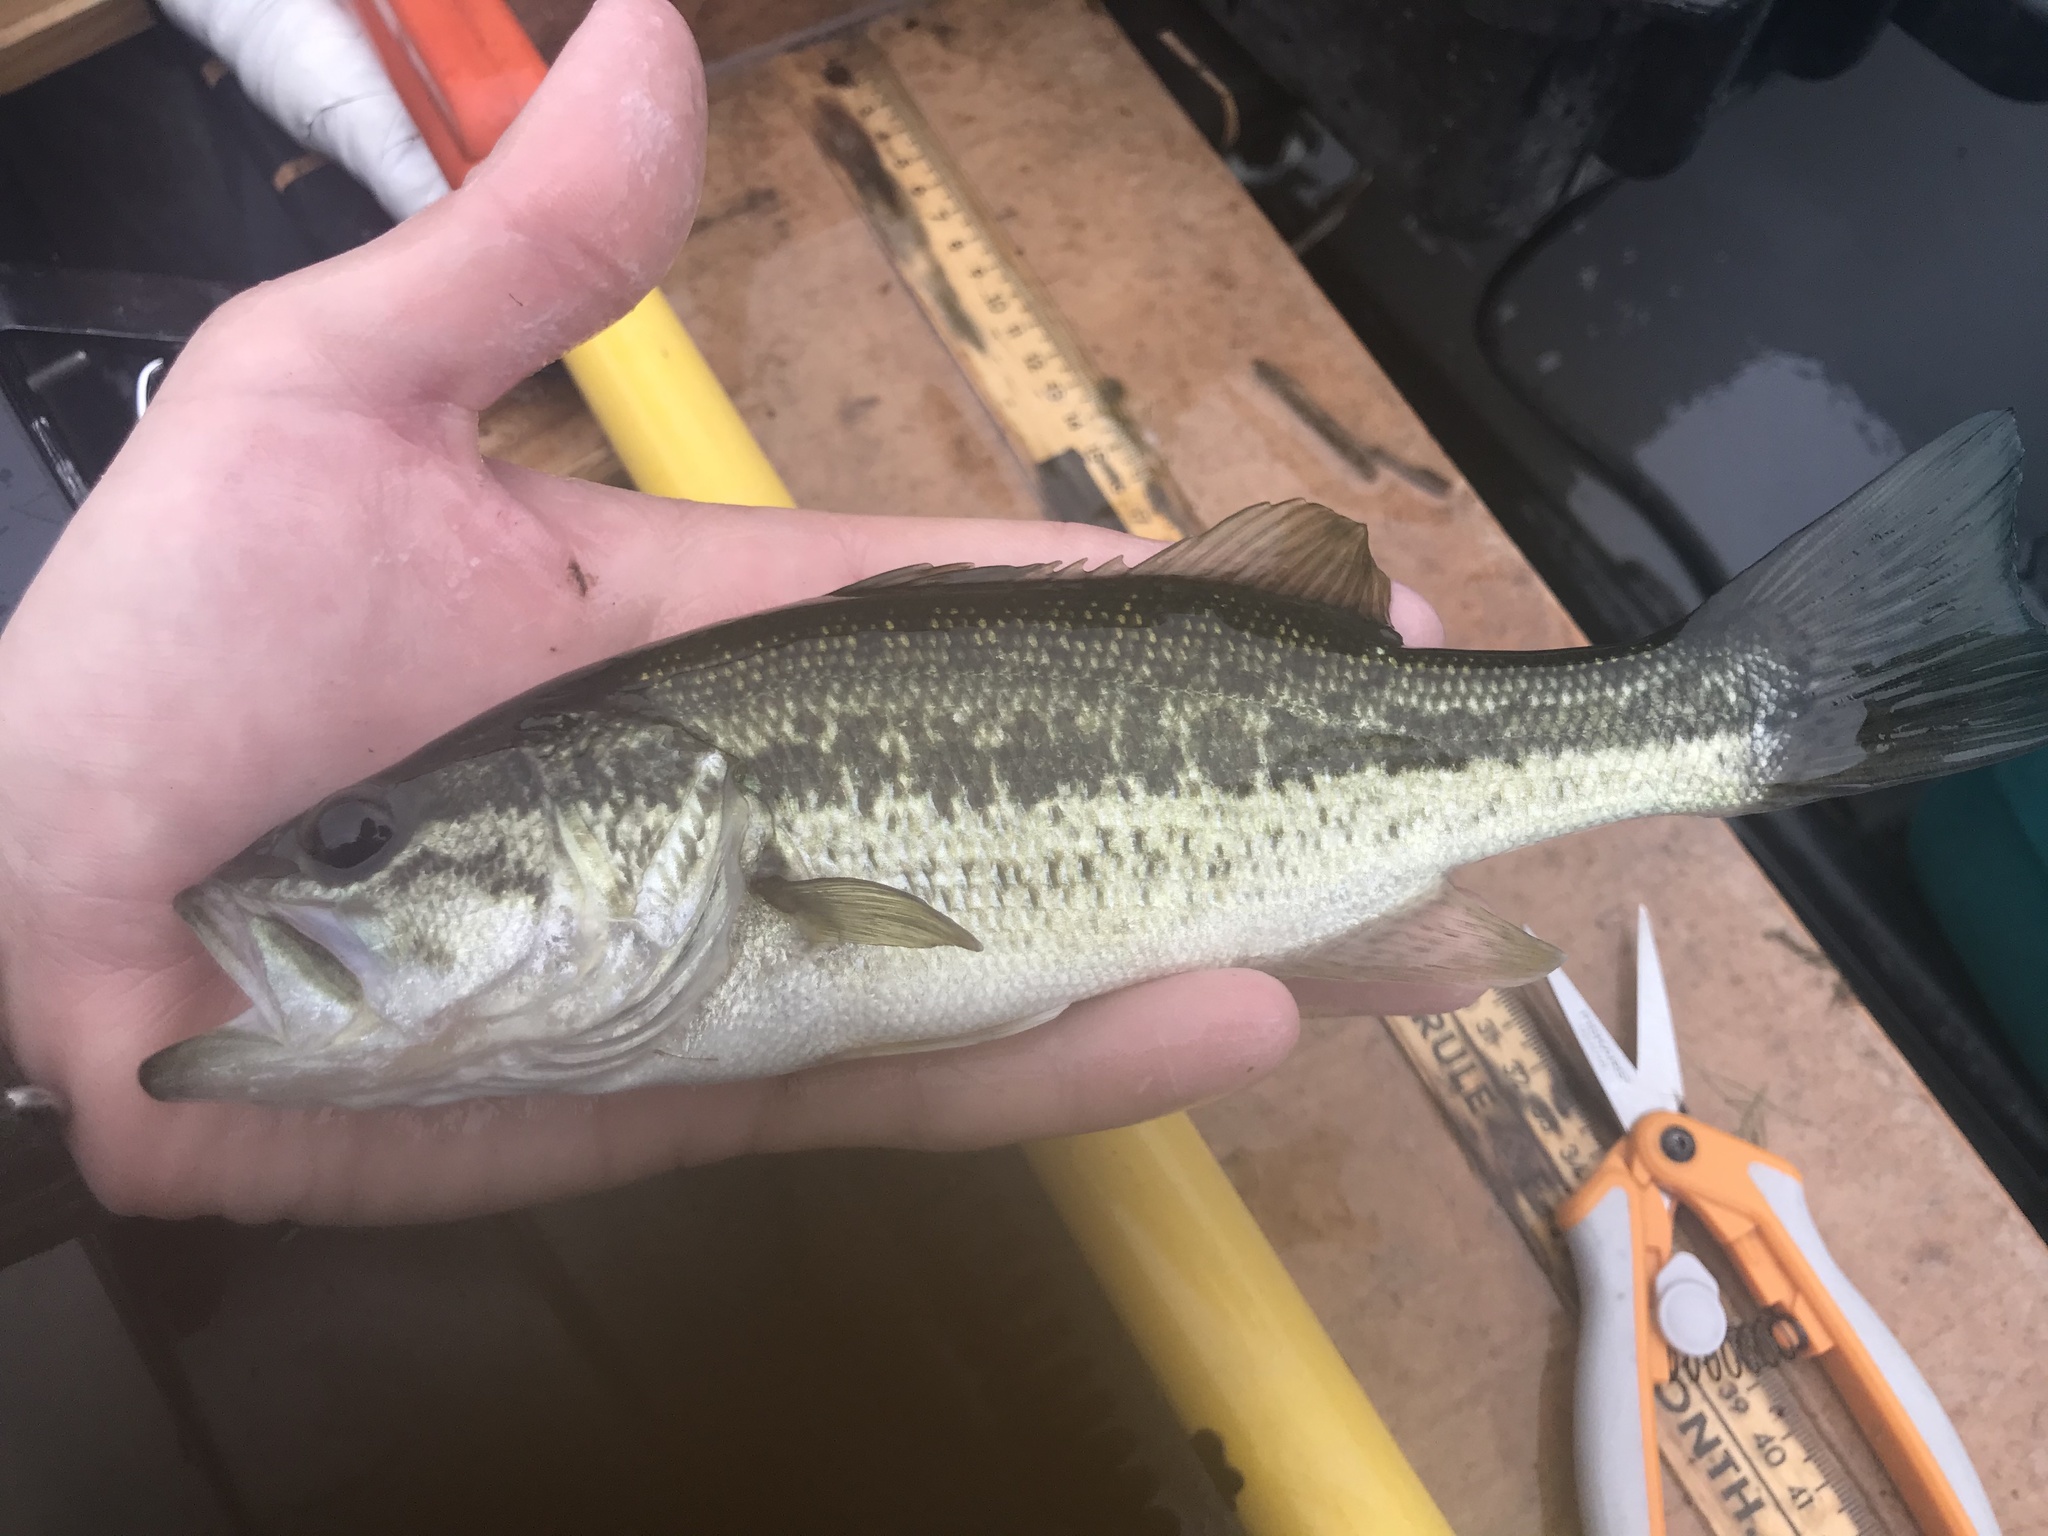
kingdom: Animalia
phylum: Chordata
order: Perciformes
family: Centrarchidae
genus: Micropterus
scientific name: Micropterus
